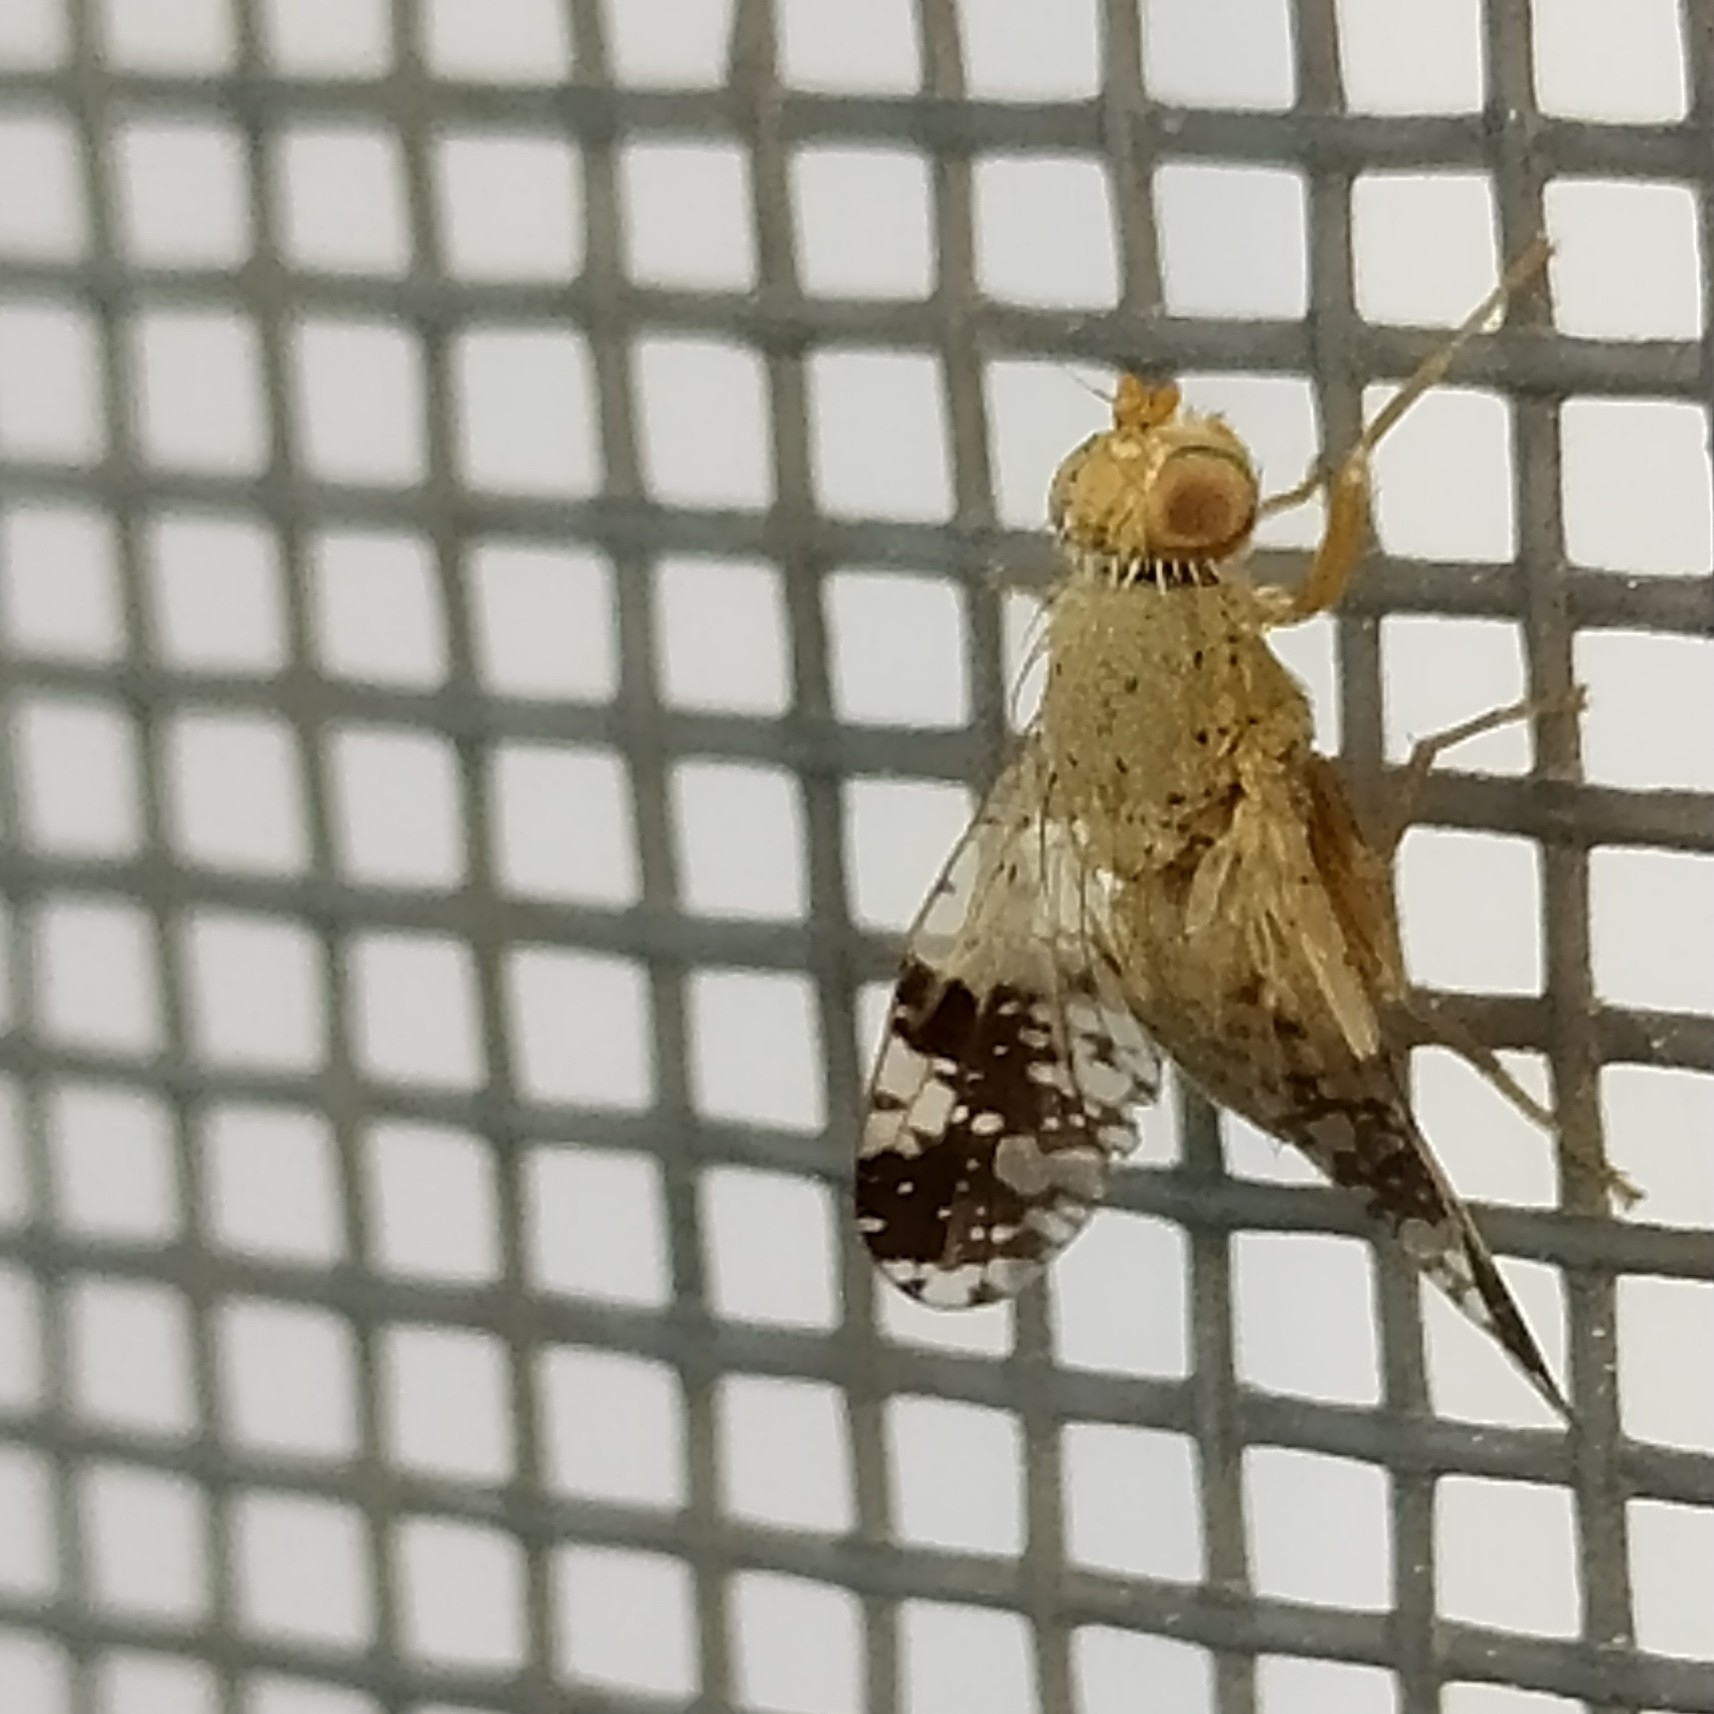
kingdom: Animalia
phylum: Arthropoda
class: Insecta
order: Diptera
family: Tephritidae
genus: Tephritis
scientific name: Tephritis bardanae
